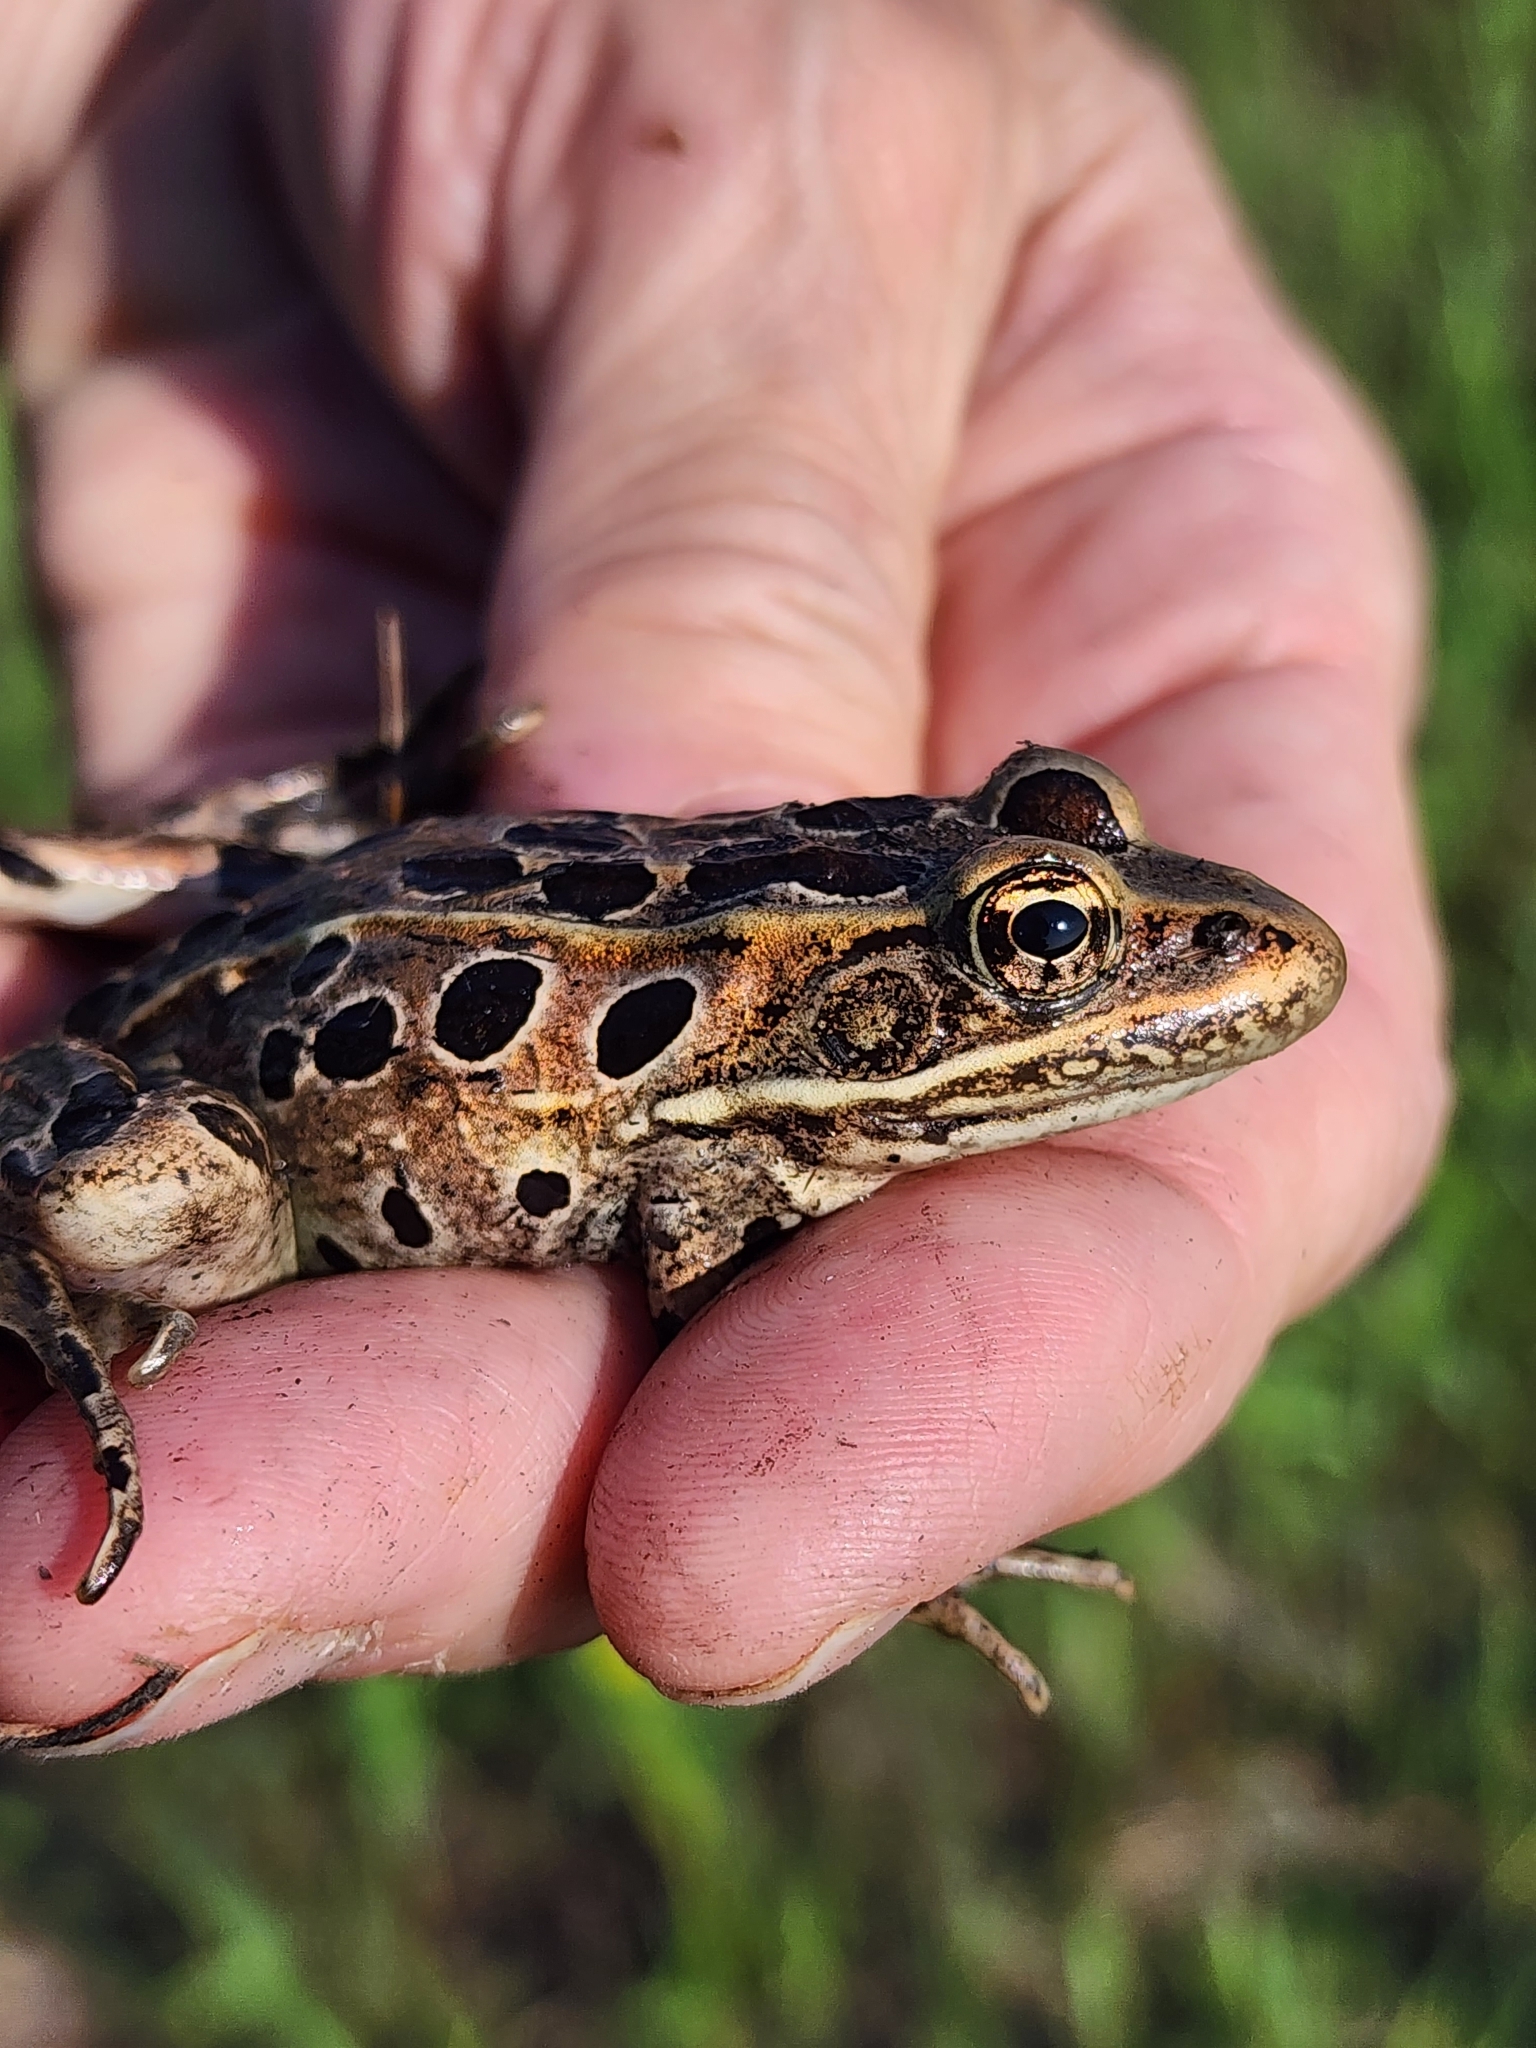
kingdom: Animalia
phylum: Chordata
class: Amphibia
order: Anura
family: Ranidae
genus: Lithobates
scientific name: Lithobates pipiens
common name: Northern leopard frog
